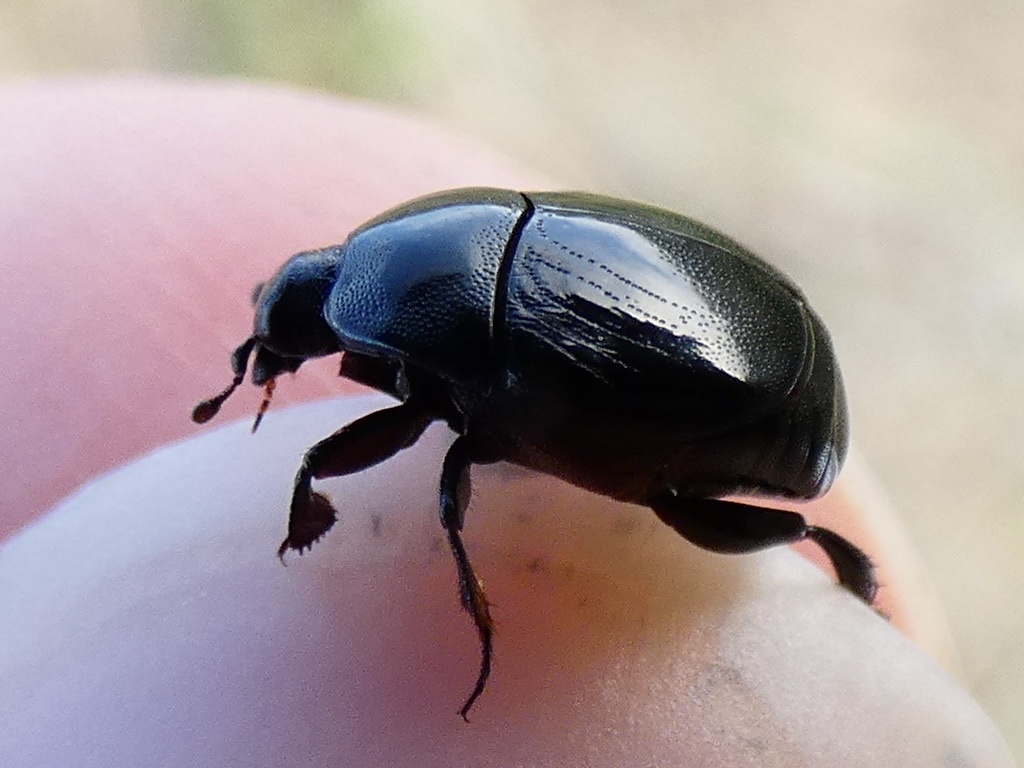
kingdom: Animalia
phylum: Arthropoda
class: Insecta
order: Coleoptera
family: Histeridae
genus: Saprinus
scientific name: Saprinus semistriatus
